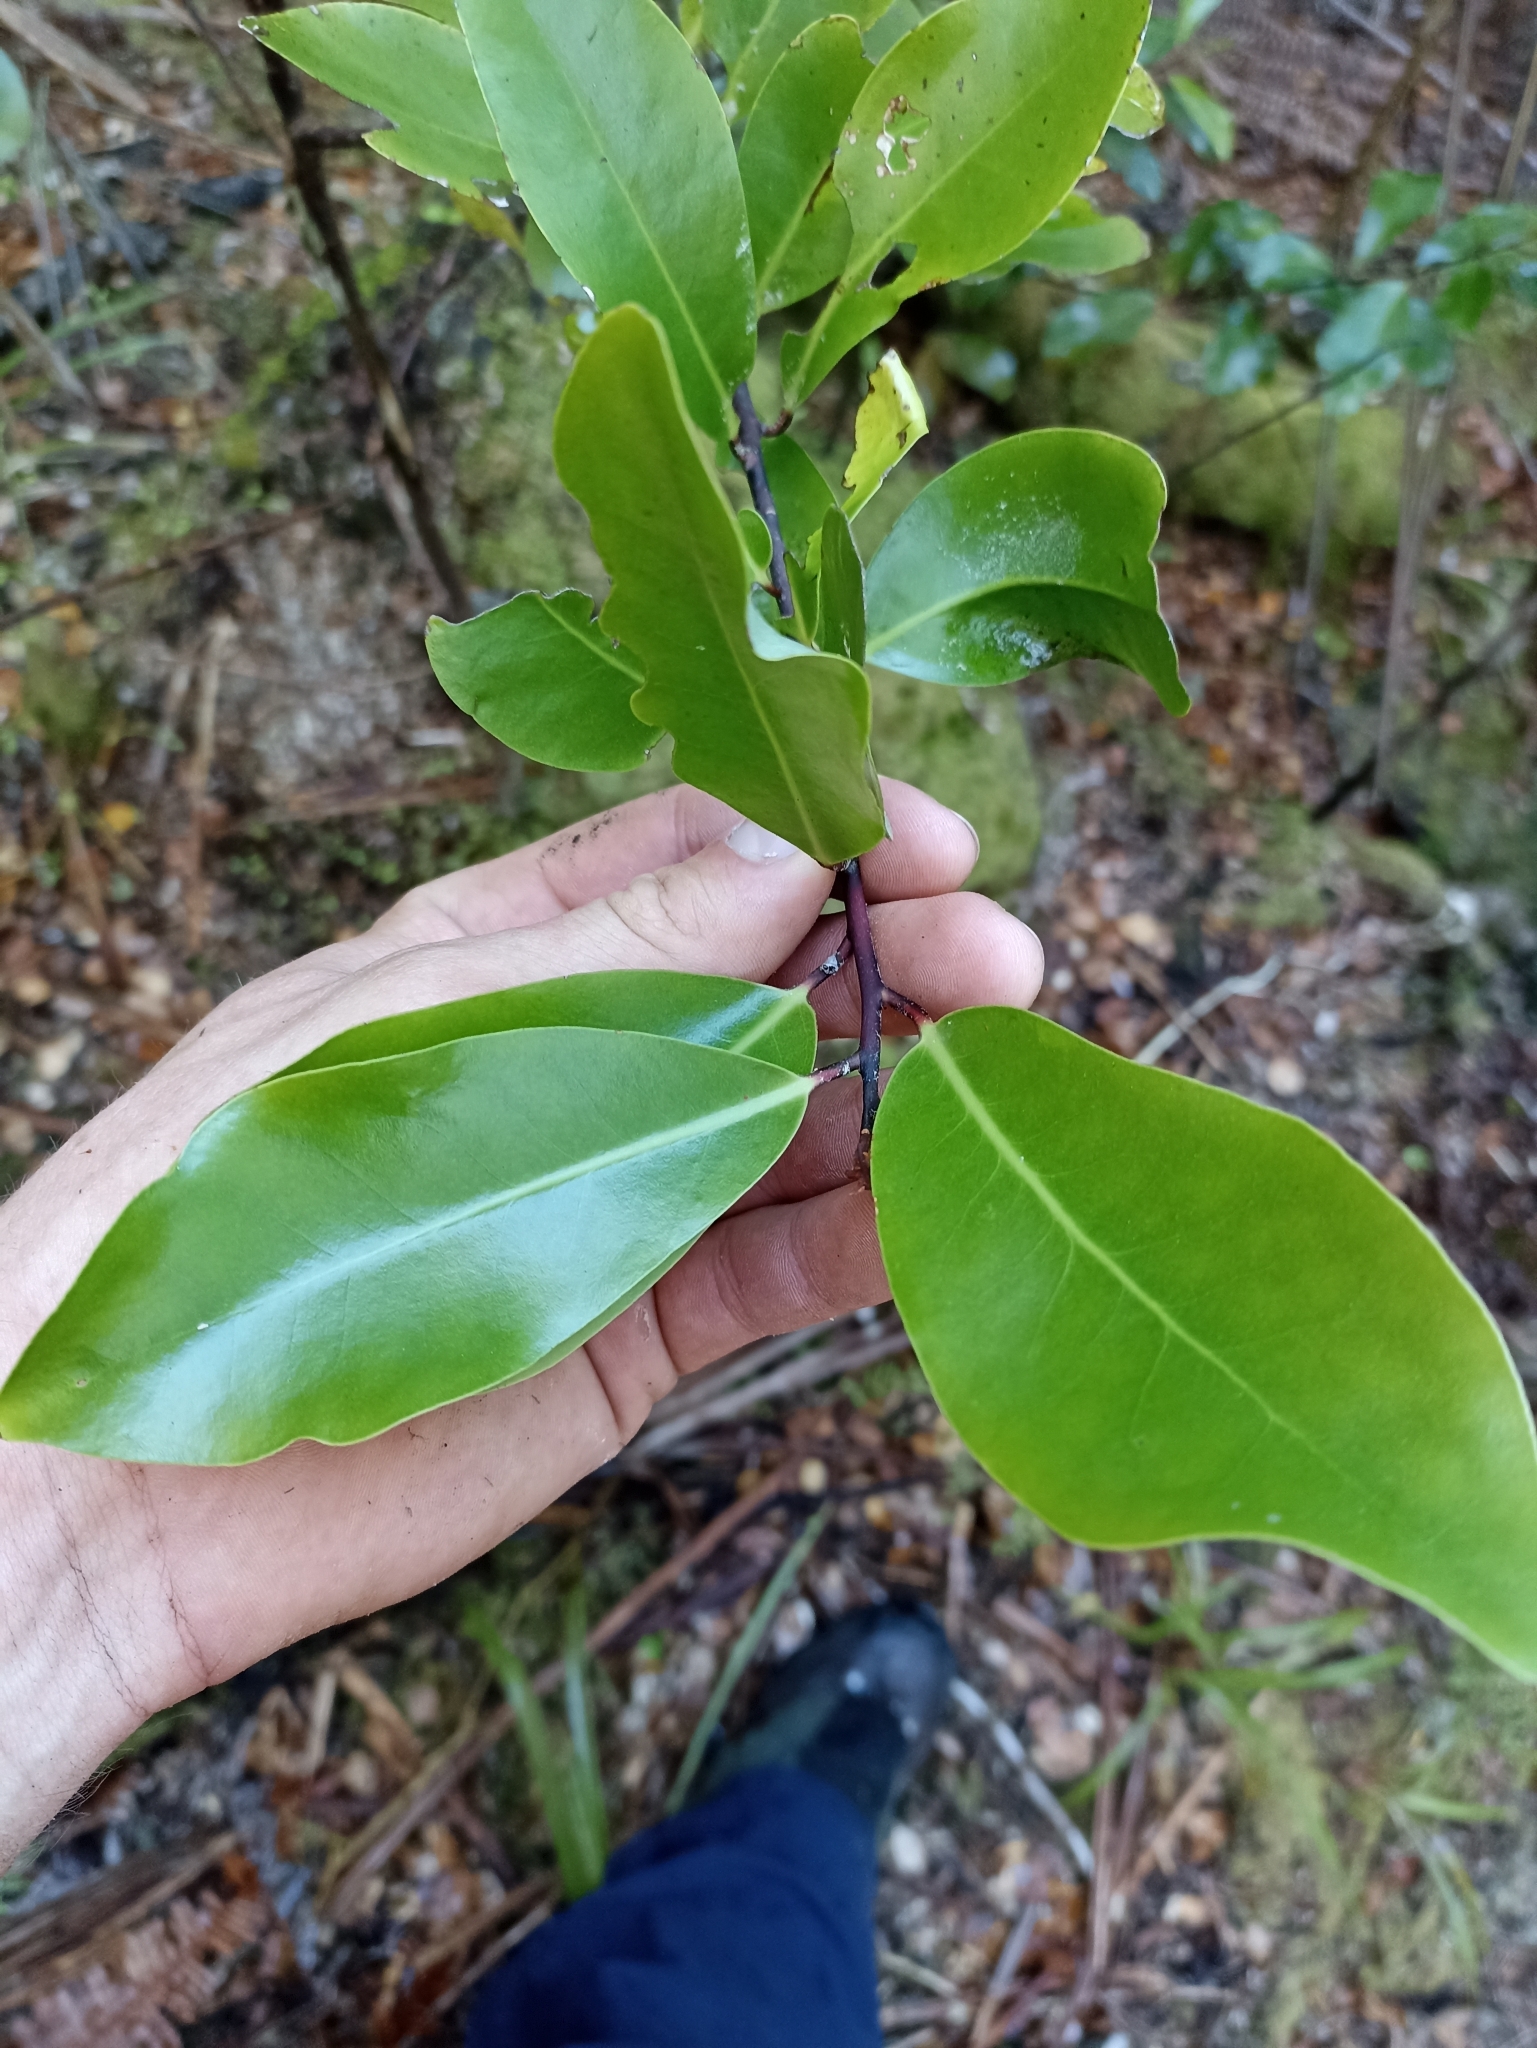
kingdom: Plantae
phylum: Tracheophyta
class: Magnoliopsida
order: Canellales
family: Winteraceae
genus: Pseudowintera
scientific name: Pseudowintera axillaris
